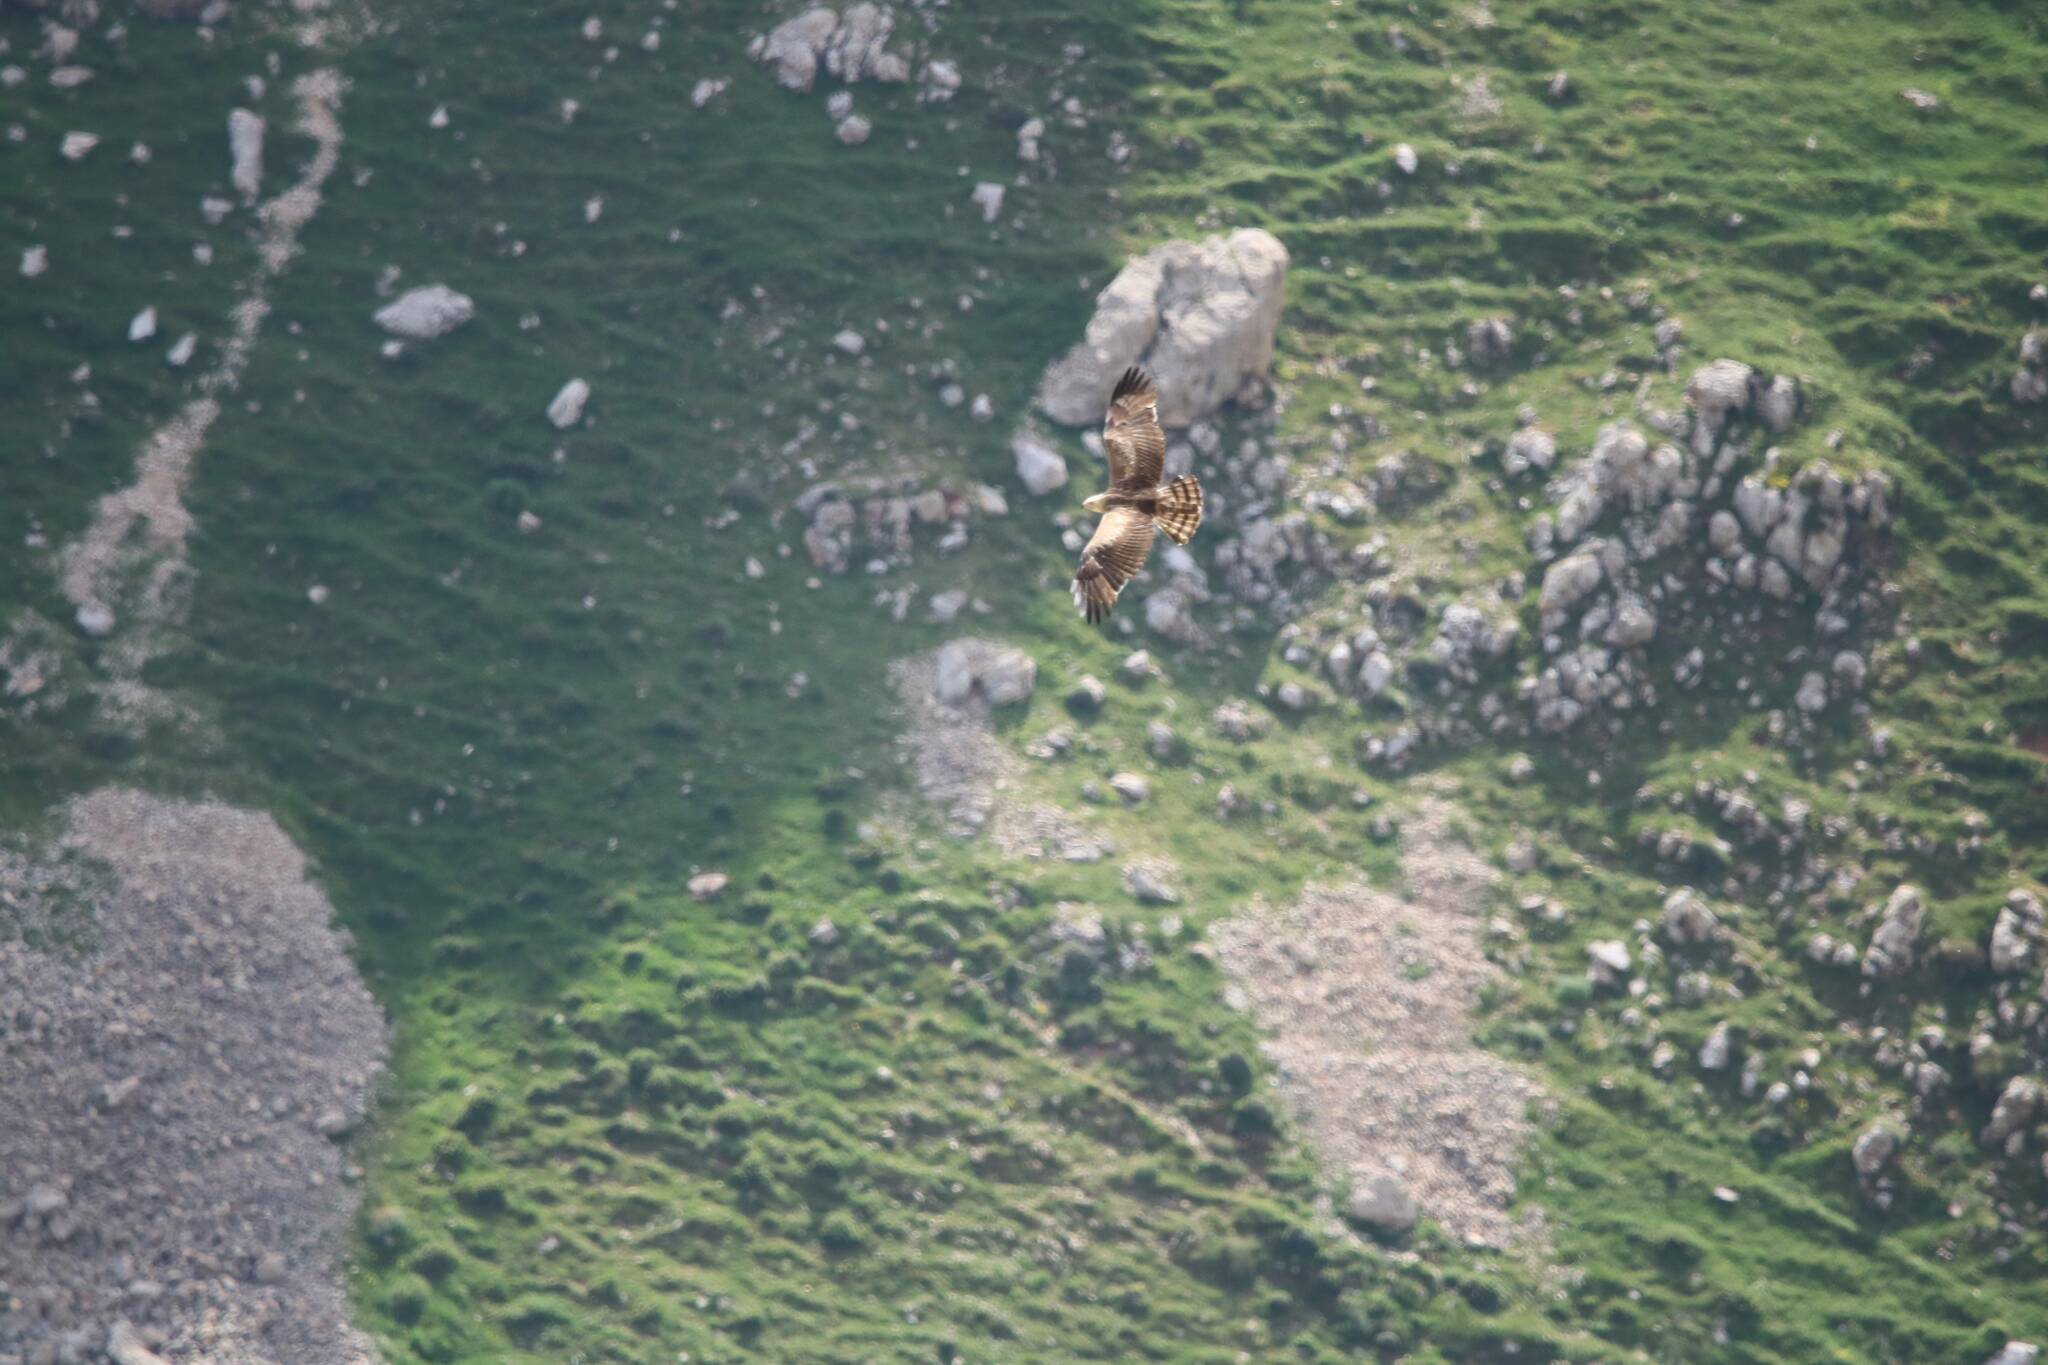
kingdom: Animalia
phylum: Chordata
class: Aves
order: Accipitriformes
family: Accipitridae
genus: Circaetus
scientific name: Circaetus gallicus
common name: Short-toed snake eagle
